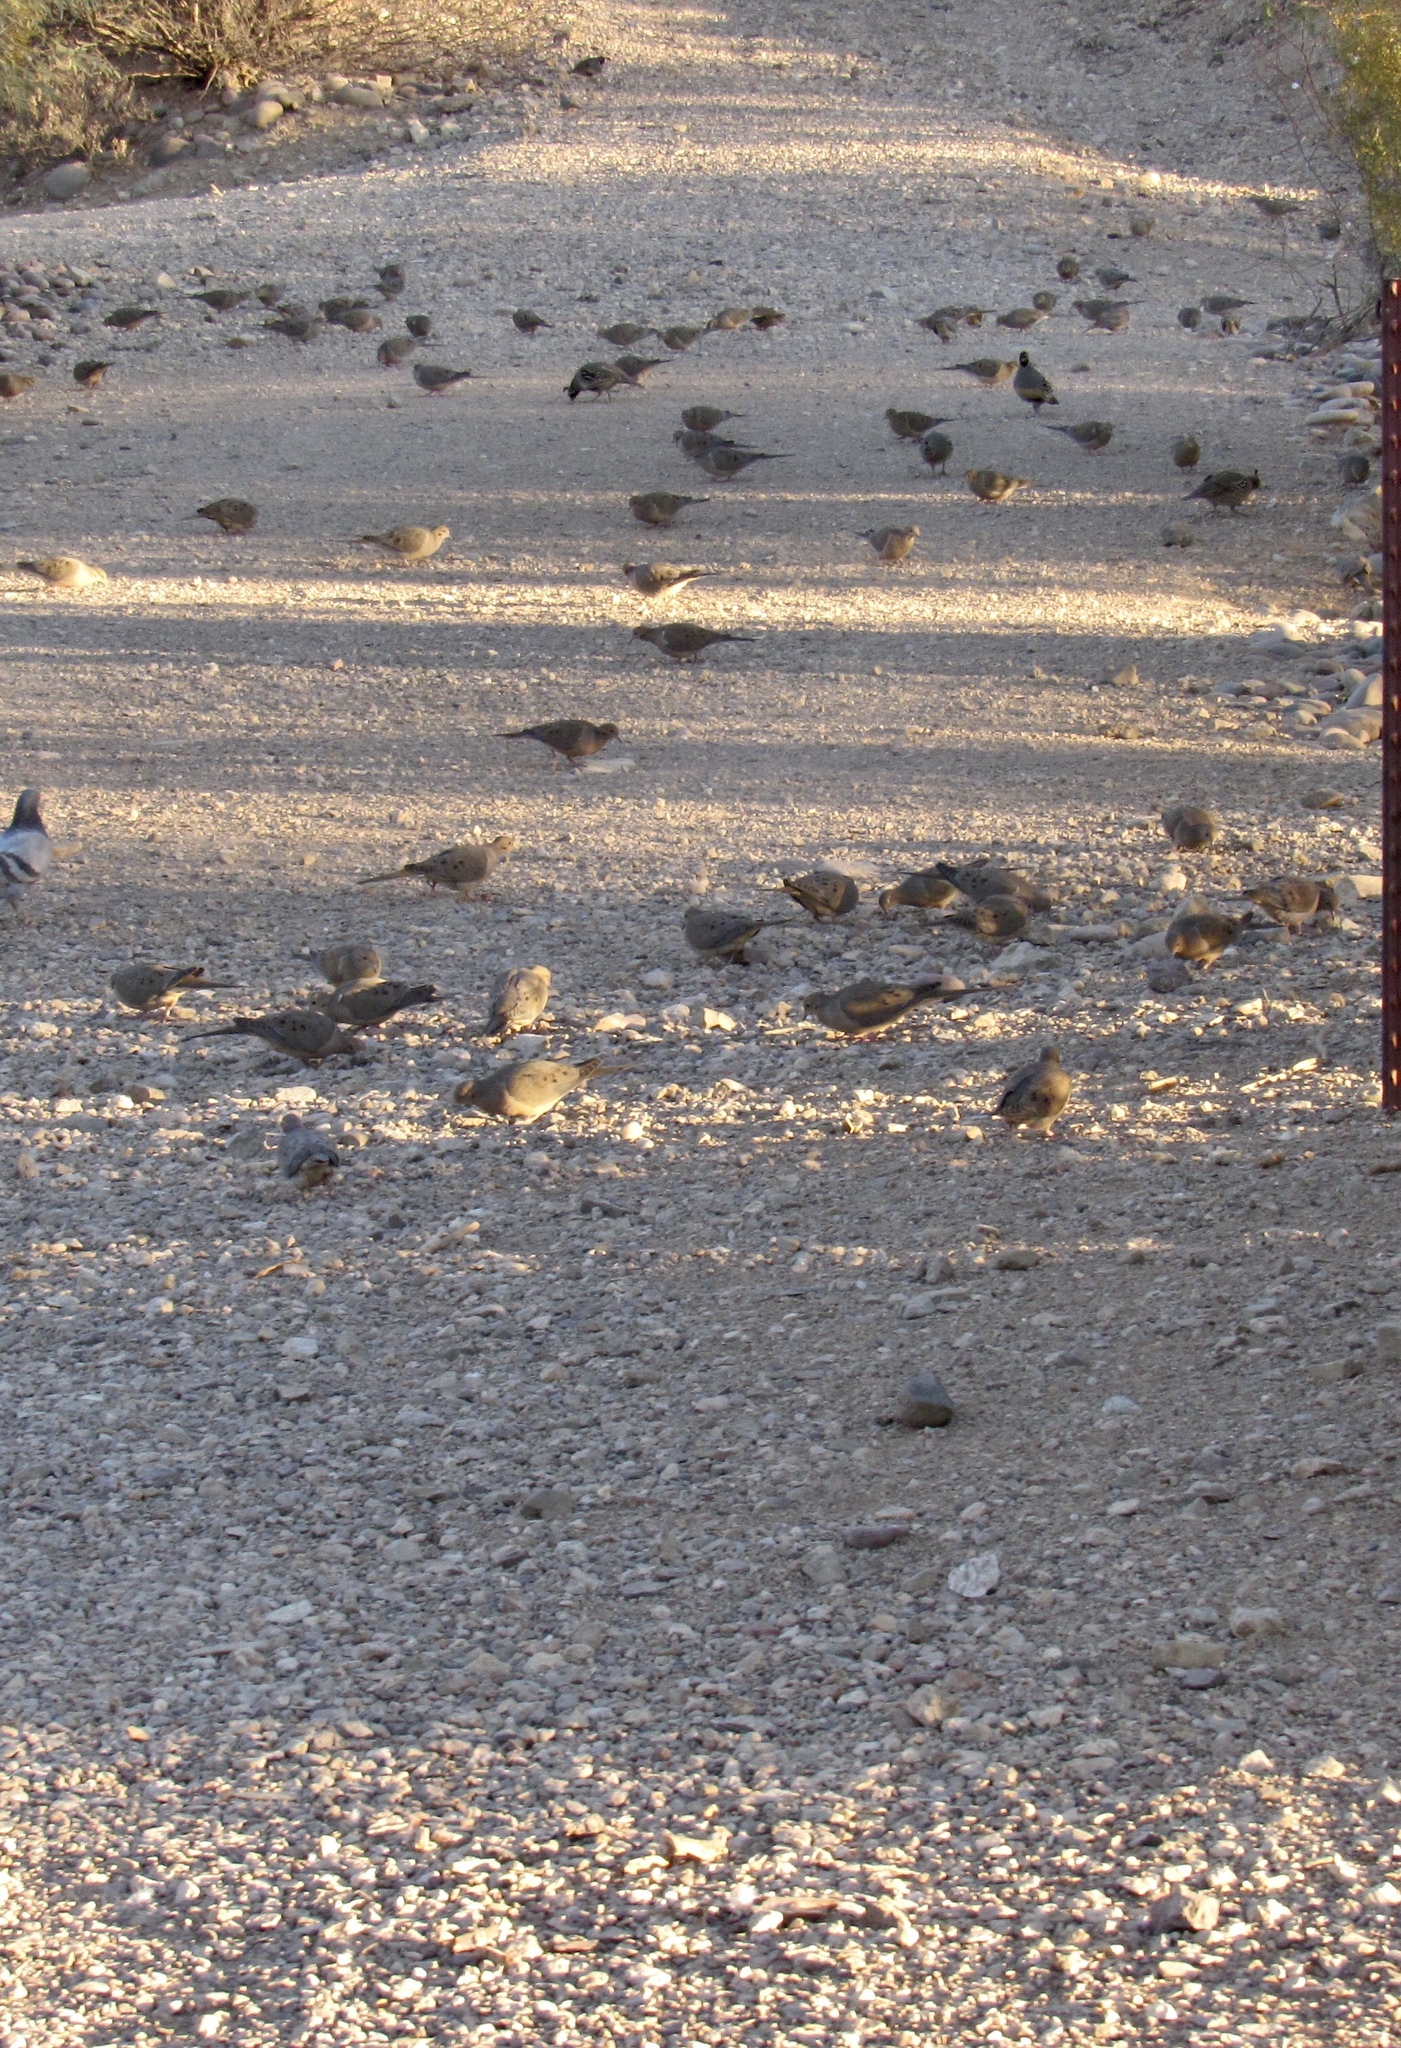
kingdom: Animalia
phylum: Chordata
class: Aves
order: Columbiformes
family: Columbidae
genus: Zenaida
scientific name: Zenaida macroura
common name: Mourning dove
